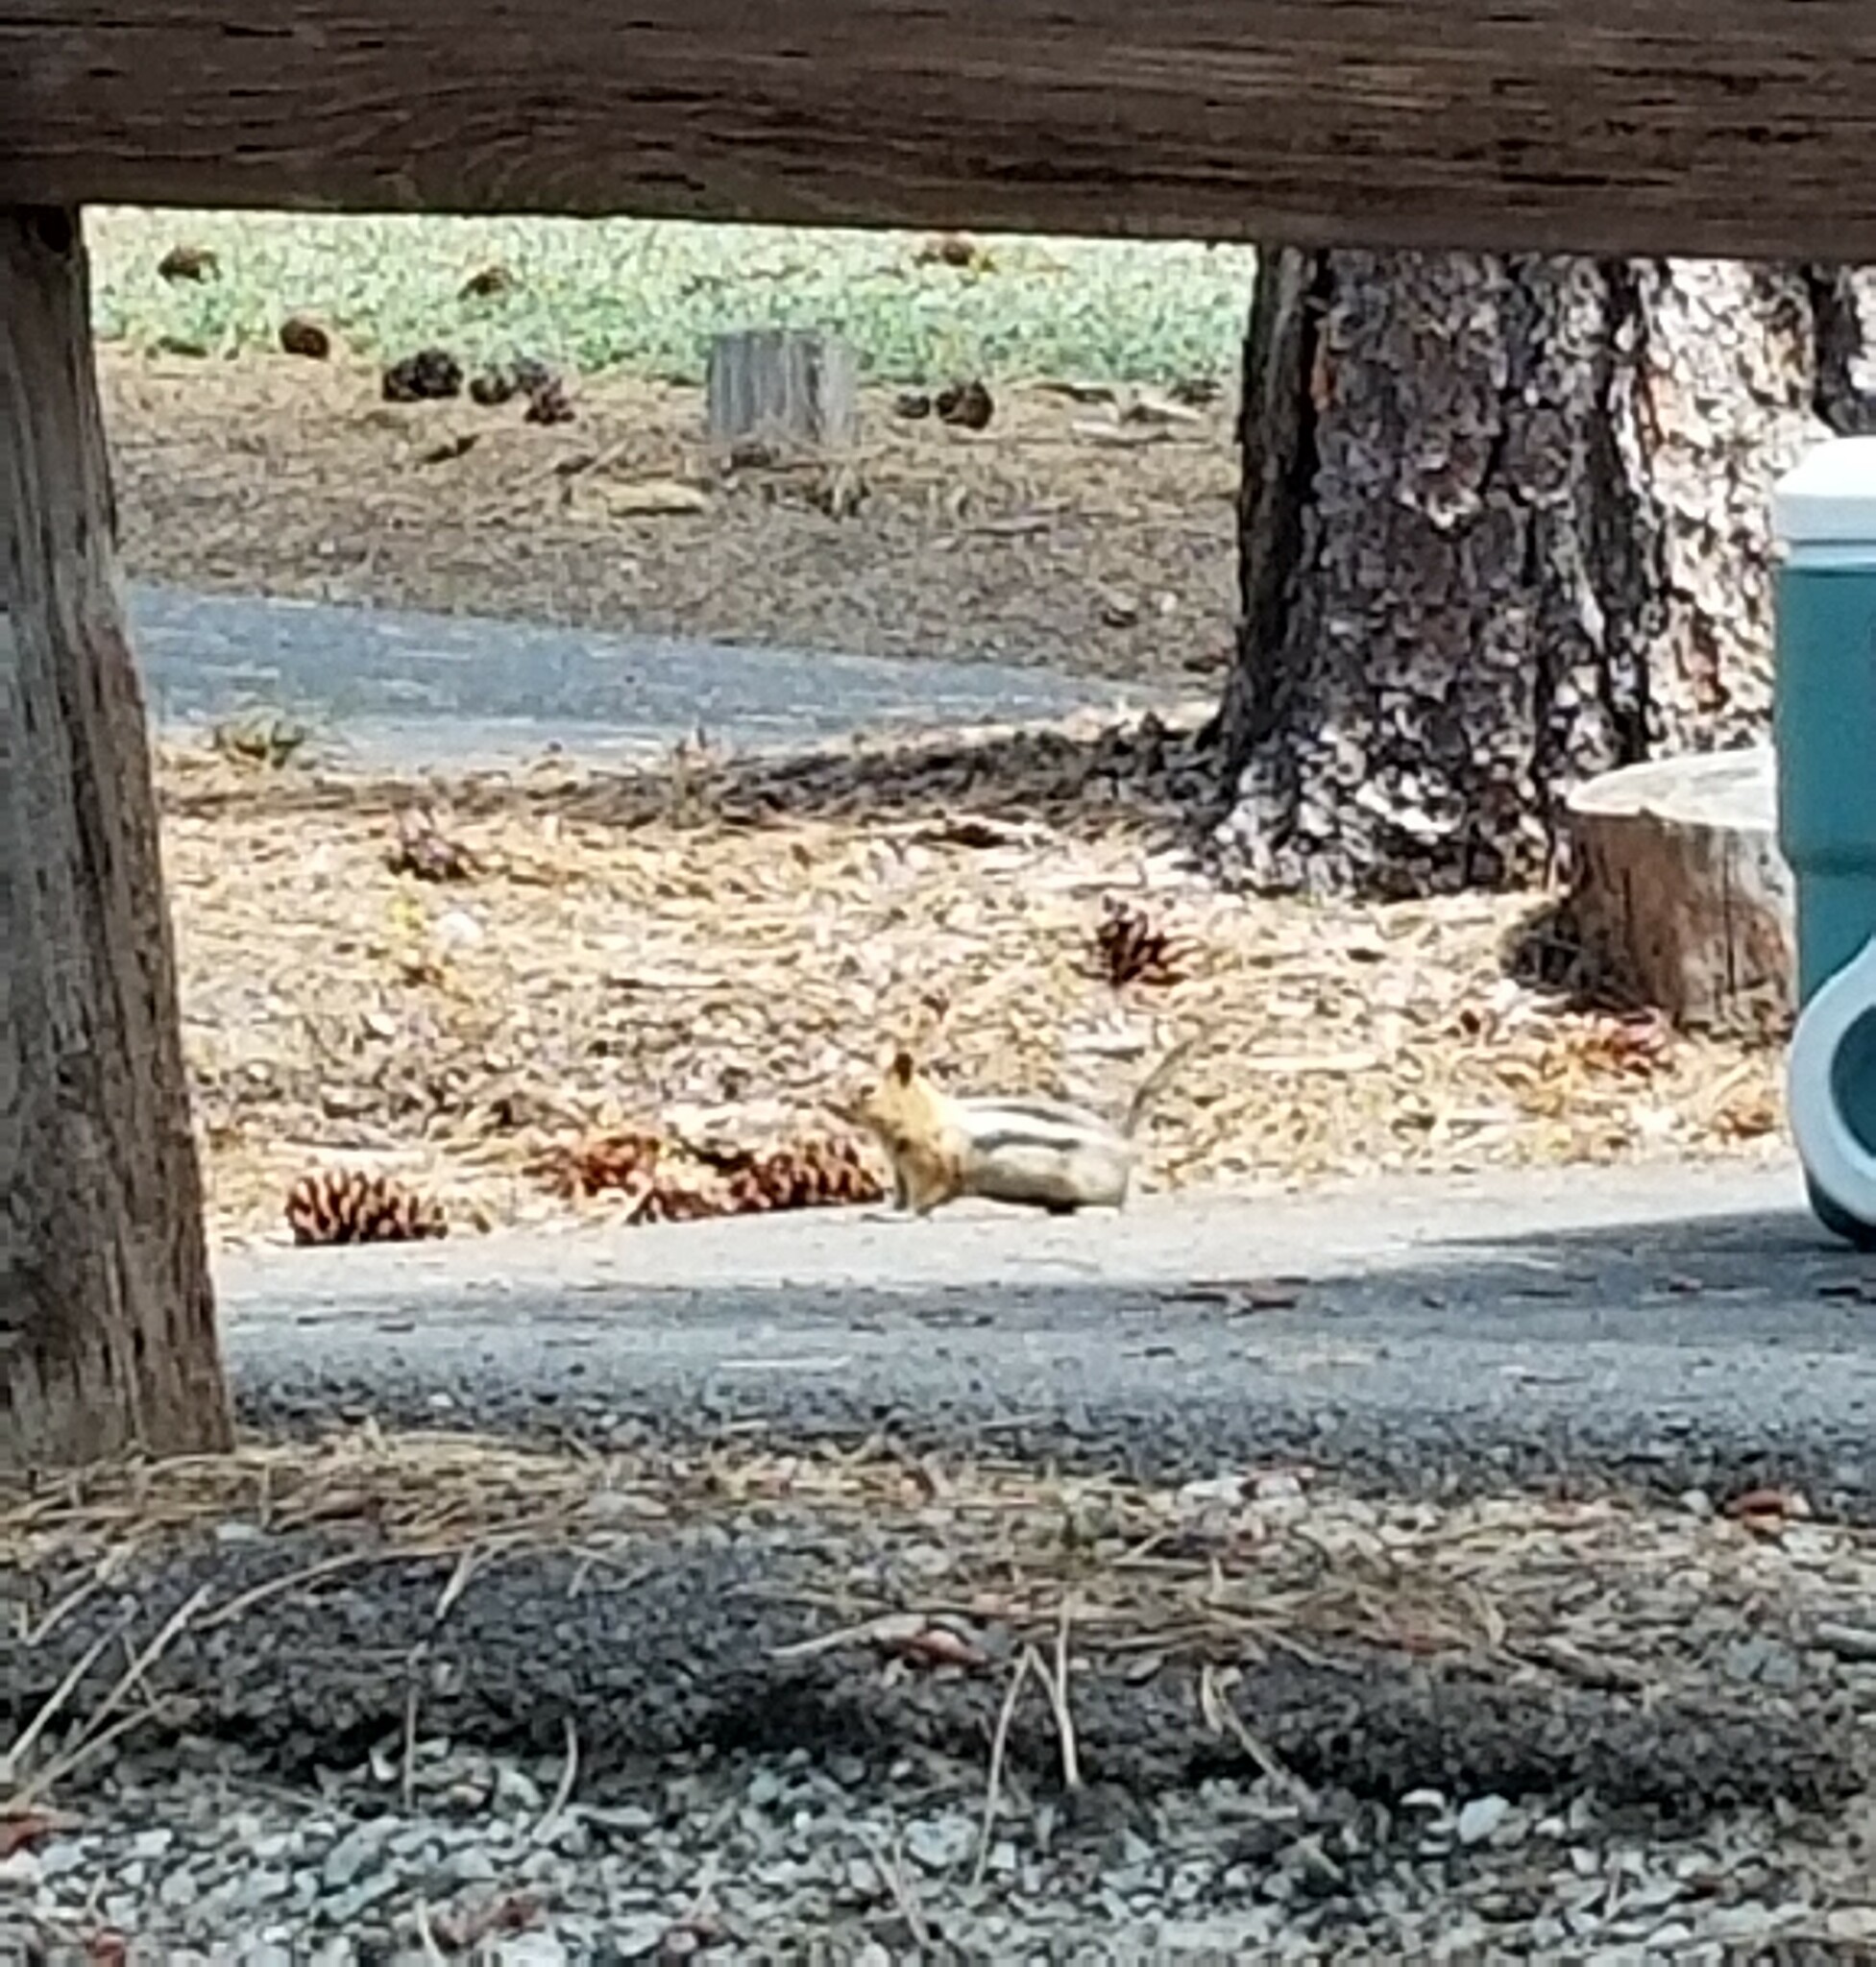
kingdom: Animalia
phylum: Chordata
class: Mammalia
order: Rodentia
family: Sciuridae
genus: Callospermophilus
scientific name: Callospermophilus lateralis
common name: Golden-mantled ground squirrel
